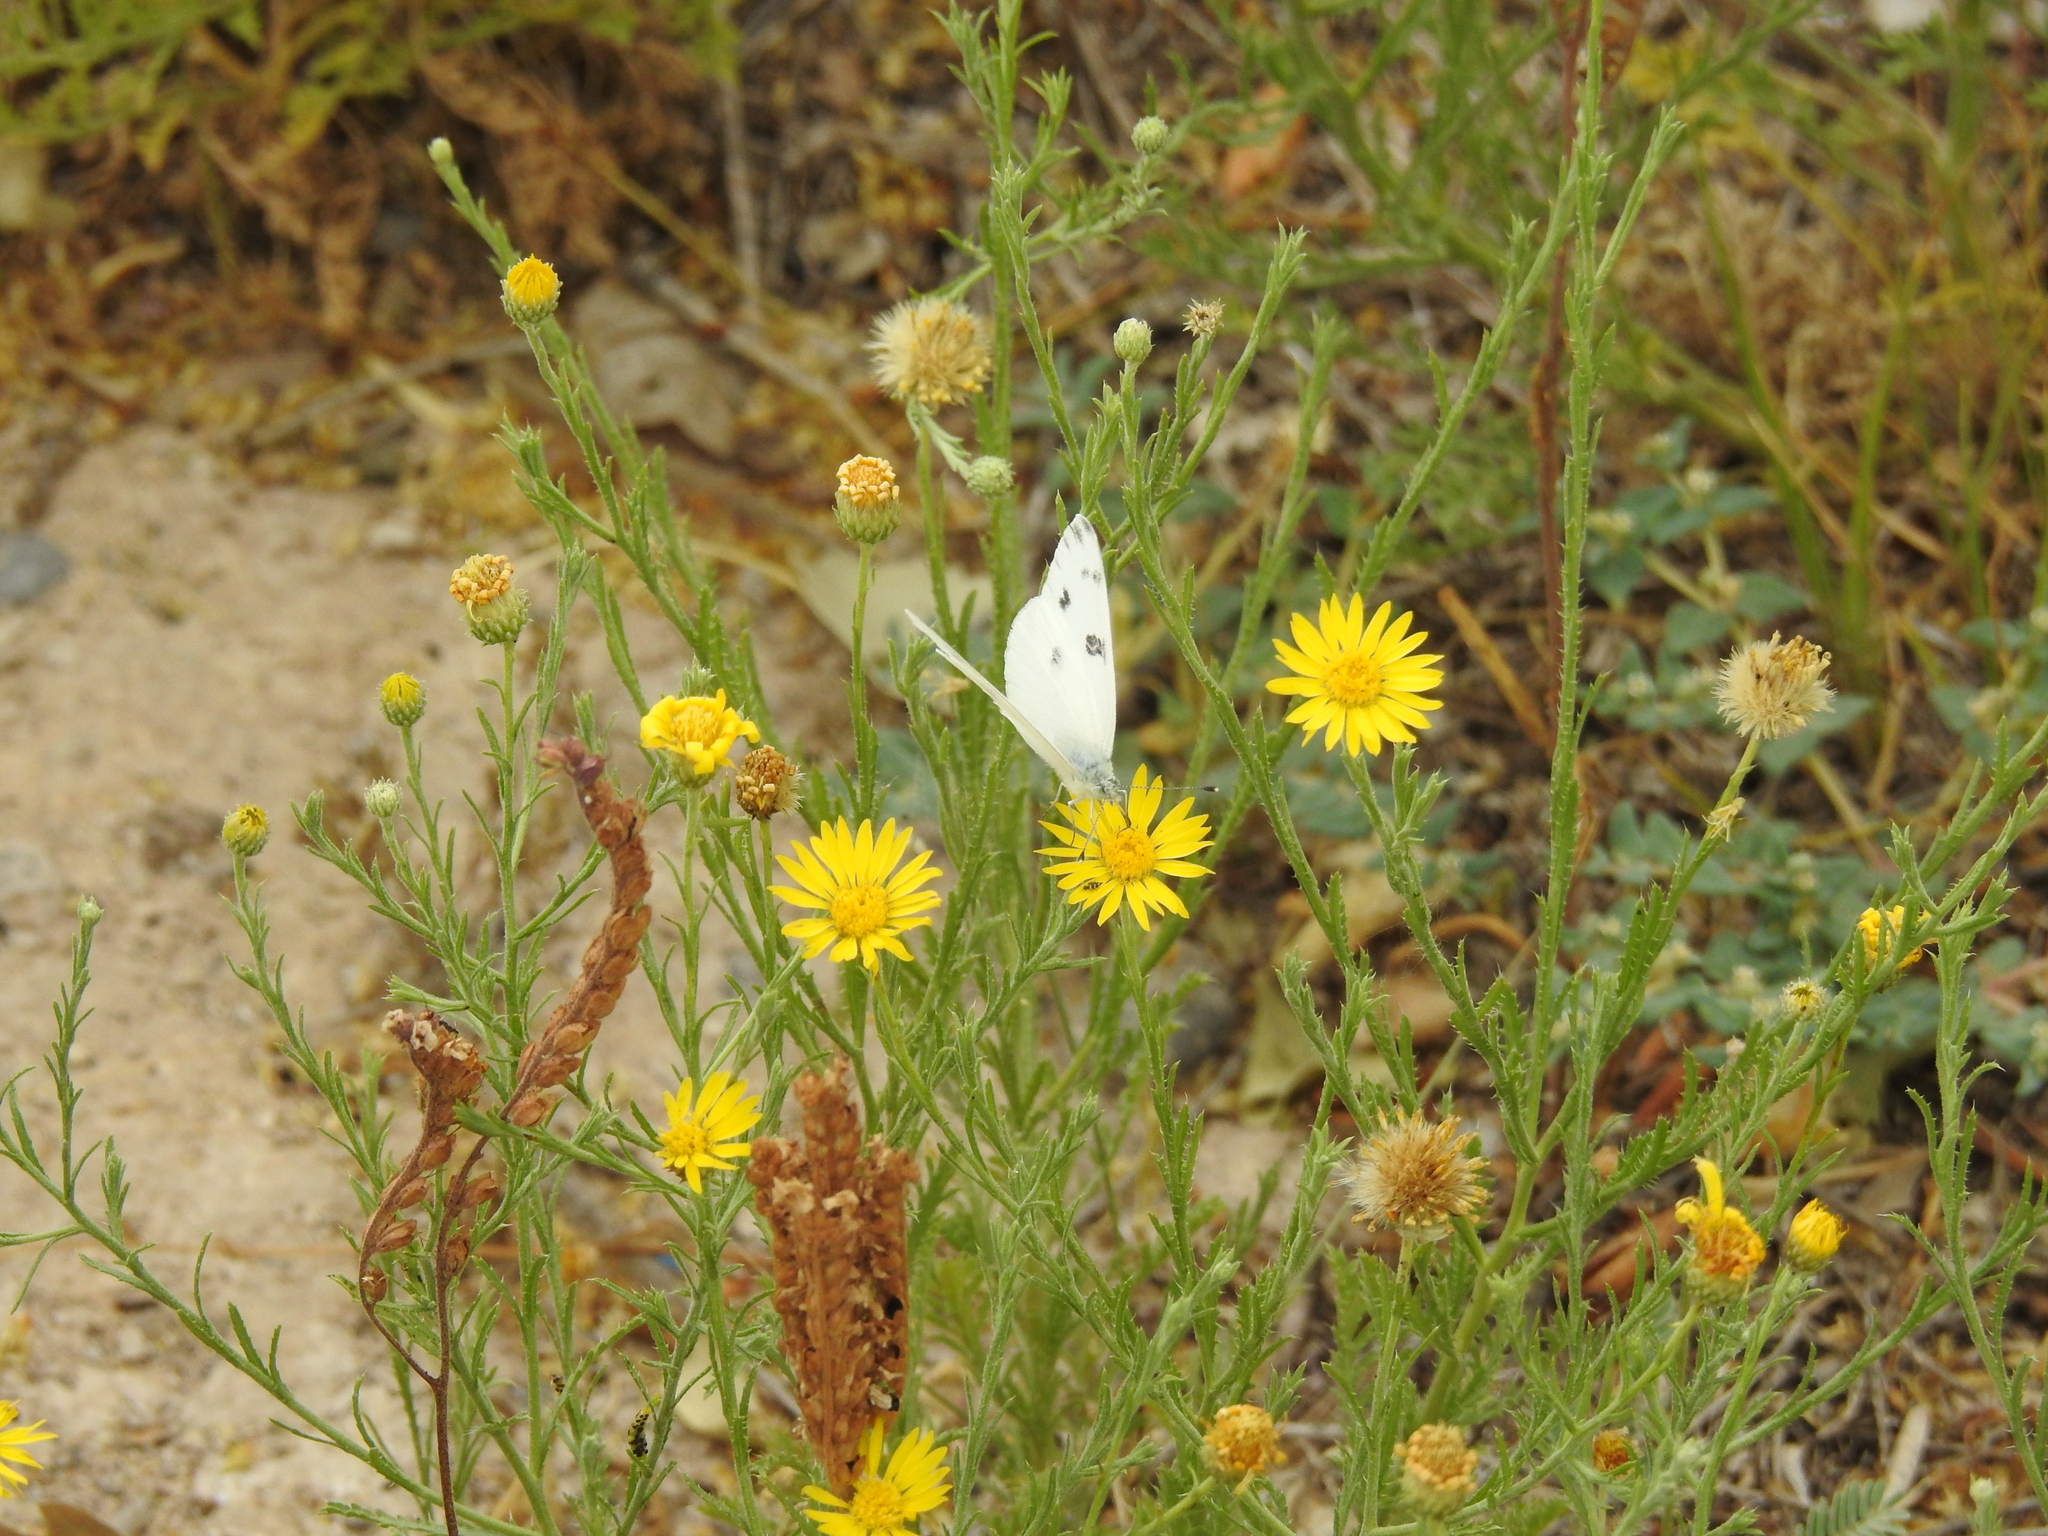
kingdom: Animalia
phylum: Arthropoda
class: Insecta
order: Lepidoptera
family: Pieridae
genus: Pontia
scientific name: Pontia protodice
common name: Checkered white
